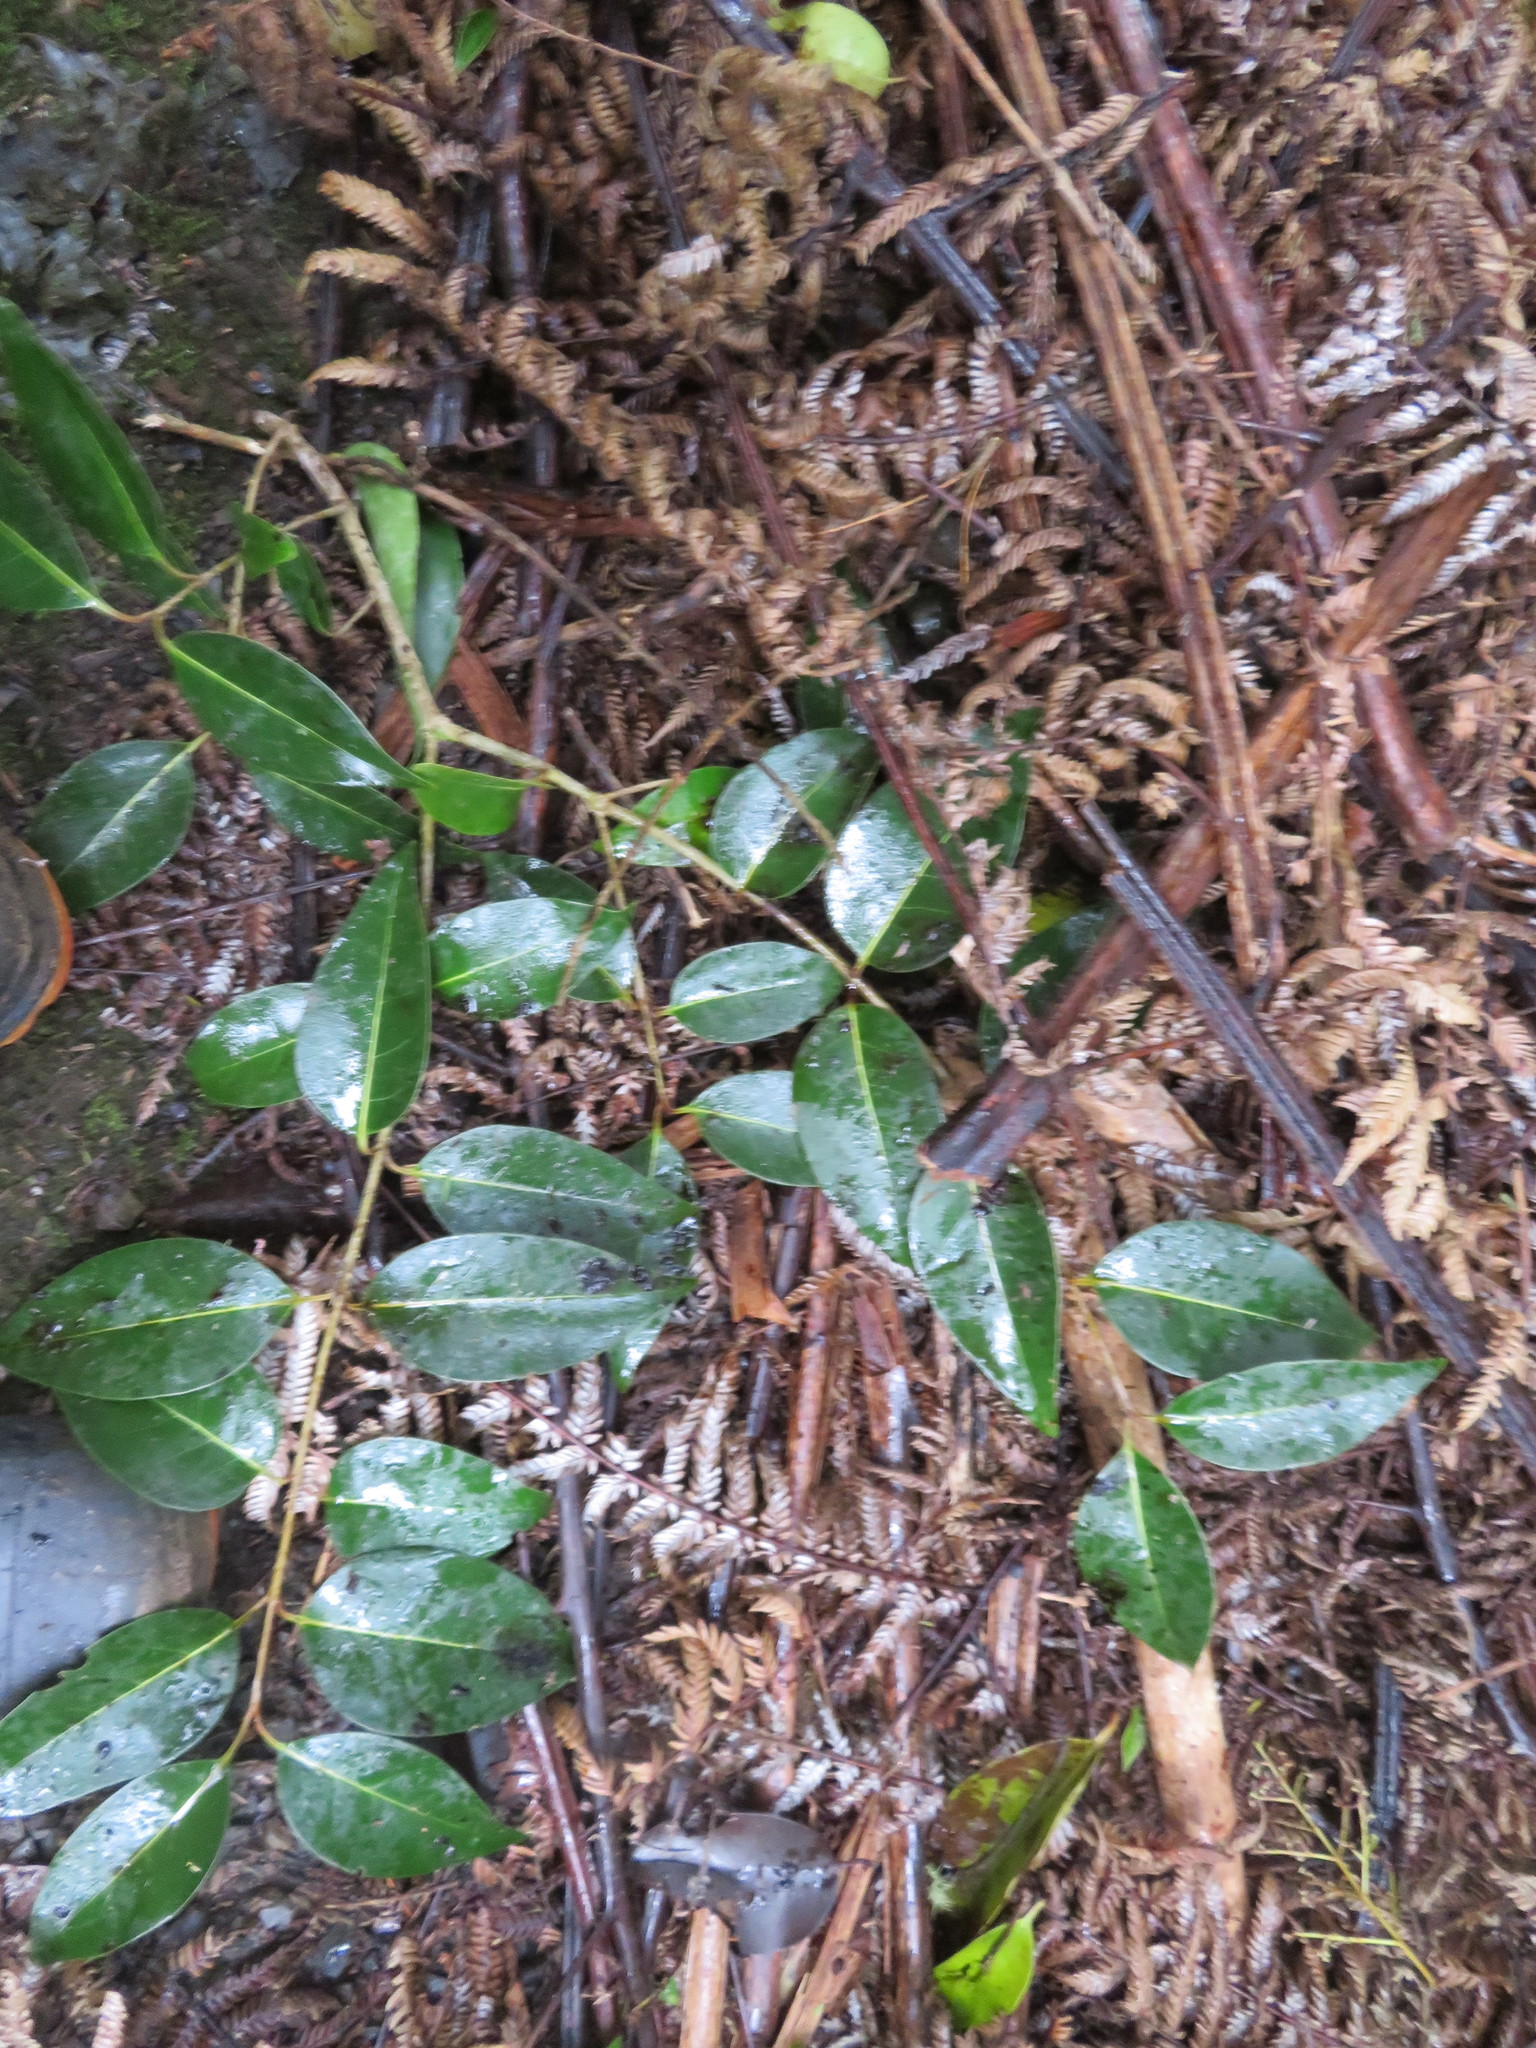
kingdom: Plantae
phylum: Tracheophyta
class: Magnoliopsida
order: Lamiales
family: Oleaceae
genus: Ligustrum
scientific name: Ligustrum lucidum
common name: Glossy privet
